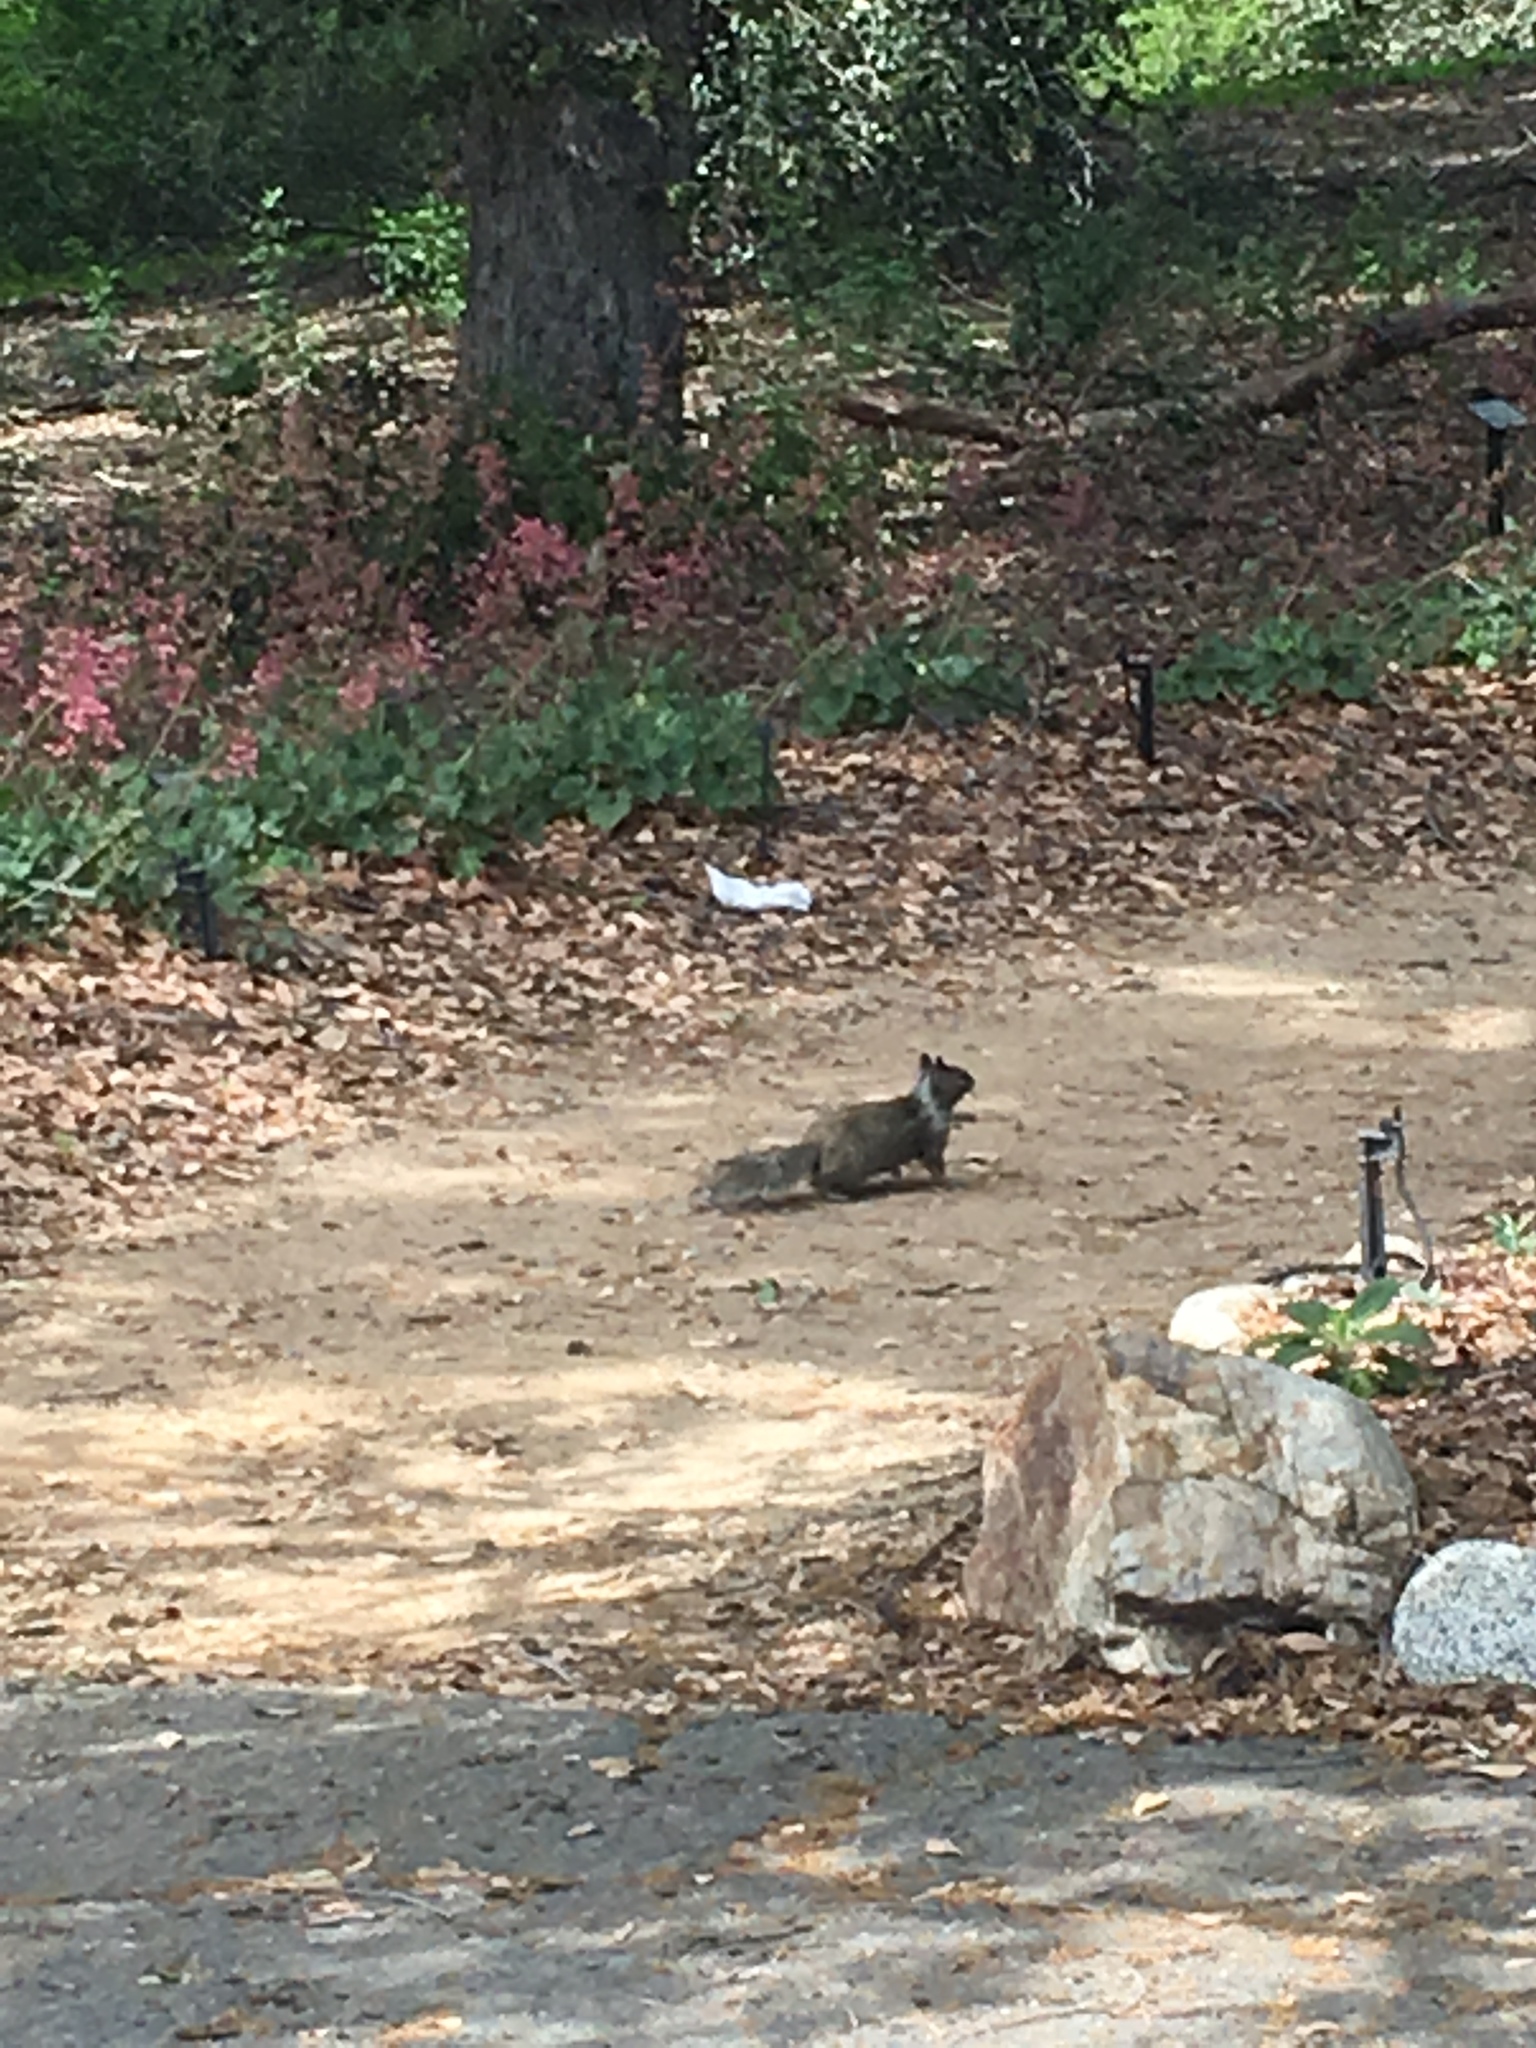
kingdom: Animalia
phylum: Chordata
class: Mammalia
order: Rodentia
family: Sciuridae
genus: Otospermophilus
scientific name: Otospermophilus beecheyi
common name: California ground squirrel
